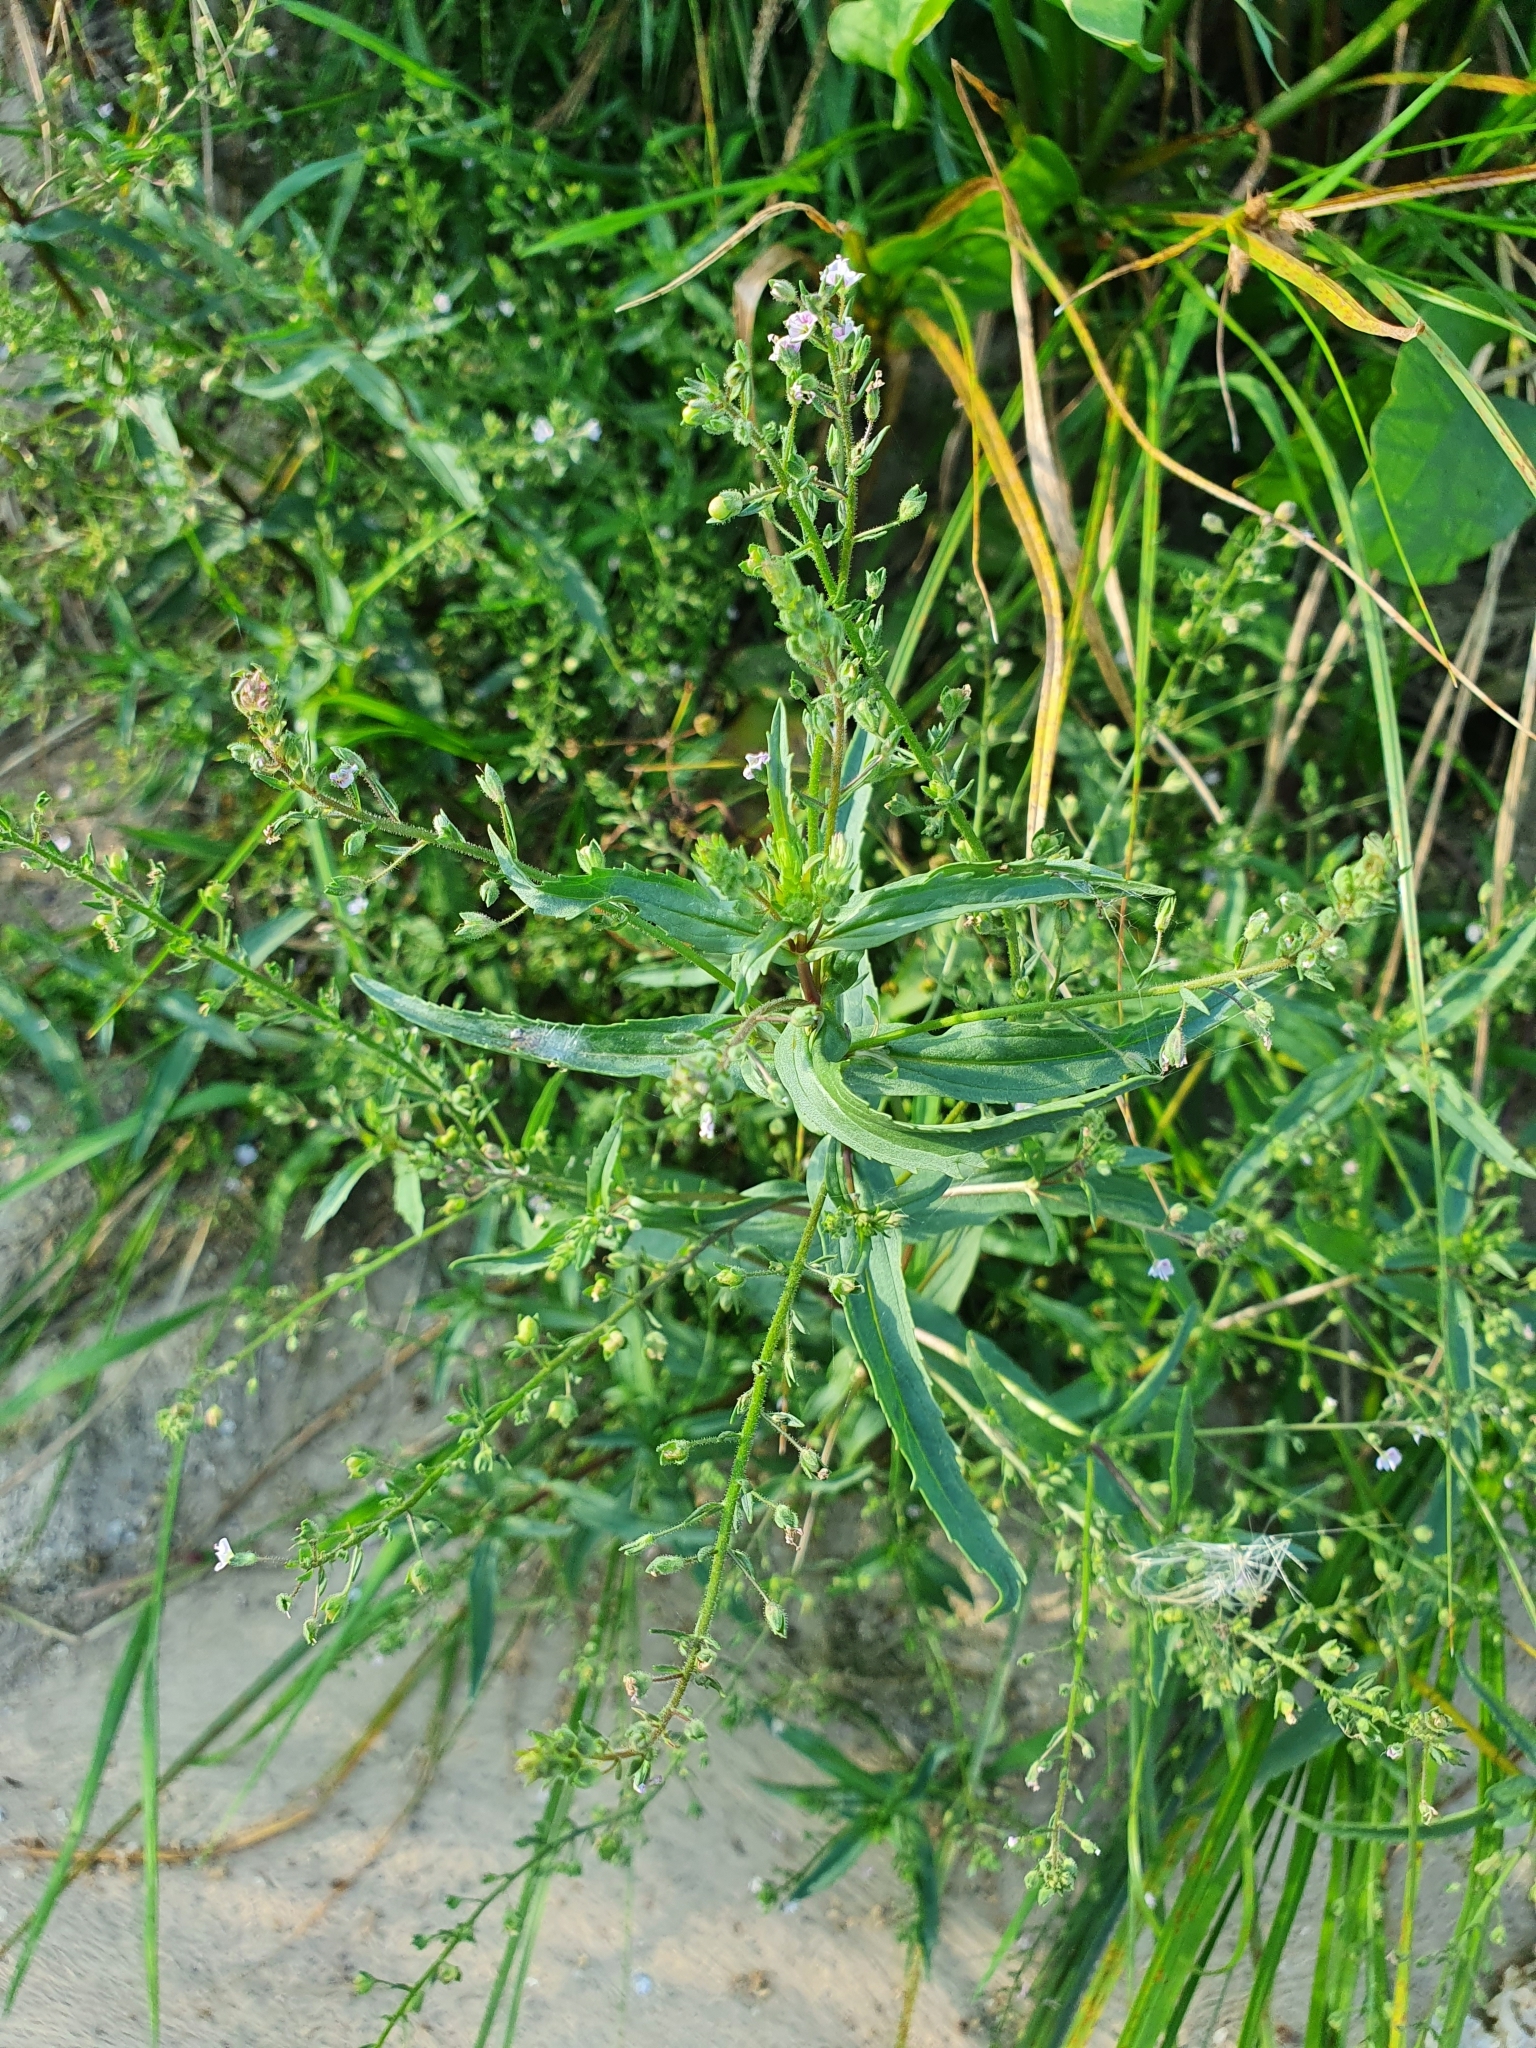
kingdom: Plantae
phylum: Tracheophyta
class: Magnoliopsida
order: Lamiales
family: Plantaginaceae
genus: Veronica
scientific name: Veronica anagallis-aquatica
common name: Water speedwell
